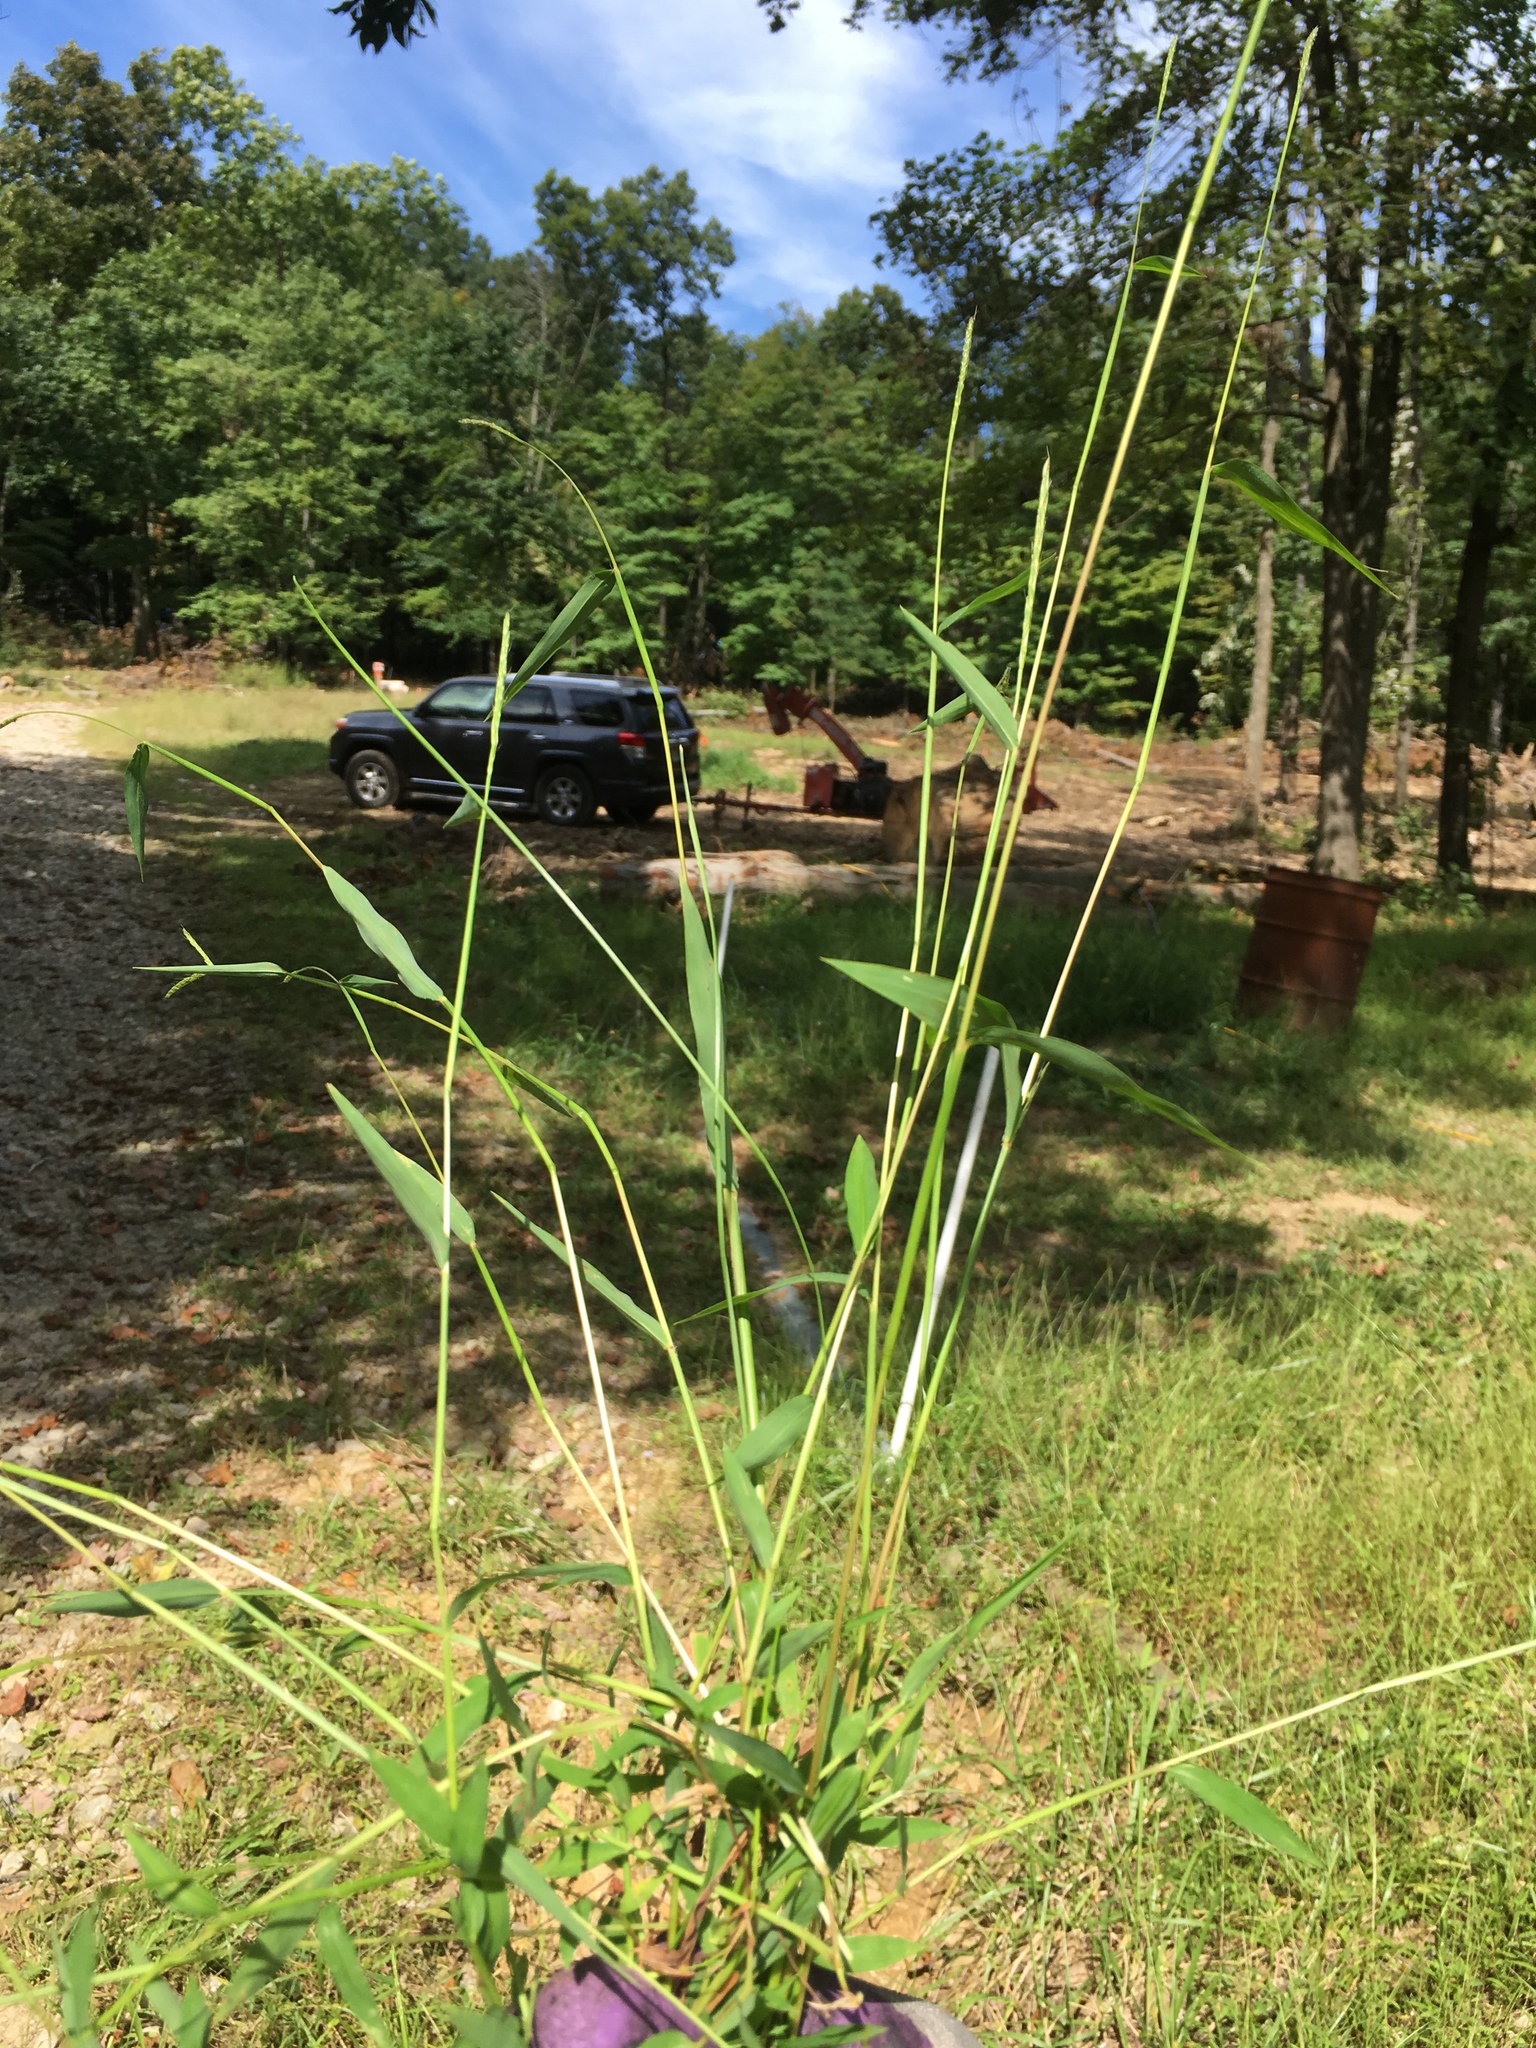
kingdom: Plantae
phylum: Tracheophyta
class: Liliopsida
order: Poales
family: Poaceae
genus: Microstegium
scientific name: Microstegium vimineum
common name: Japanese stiltgrass
